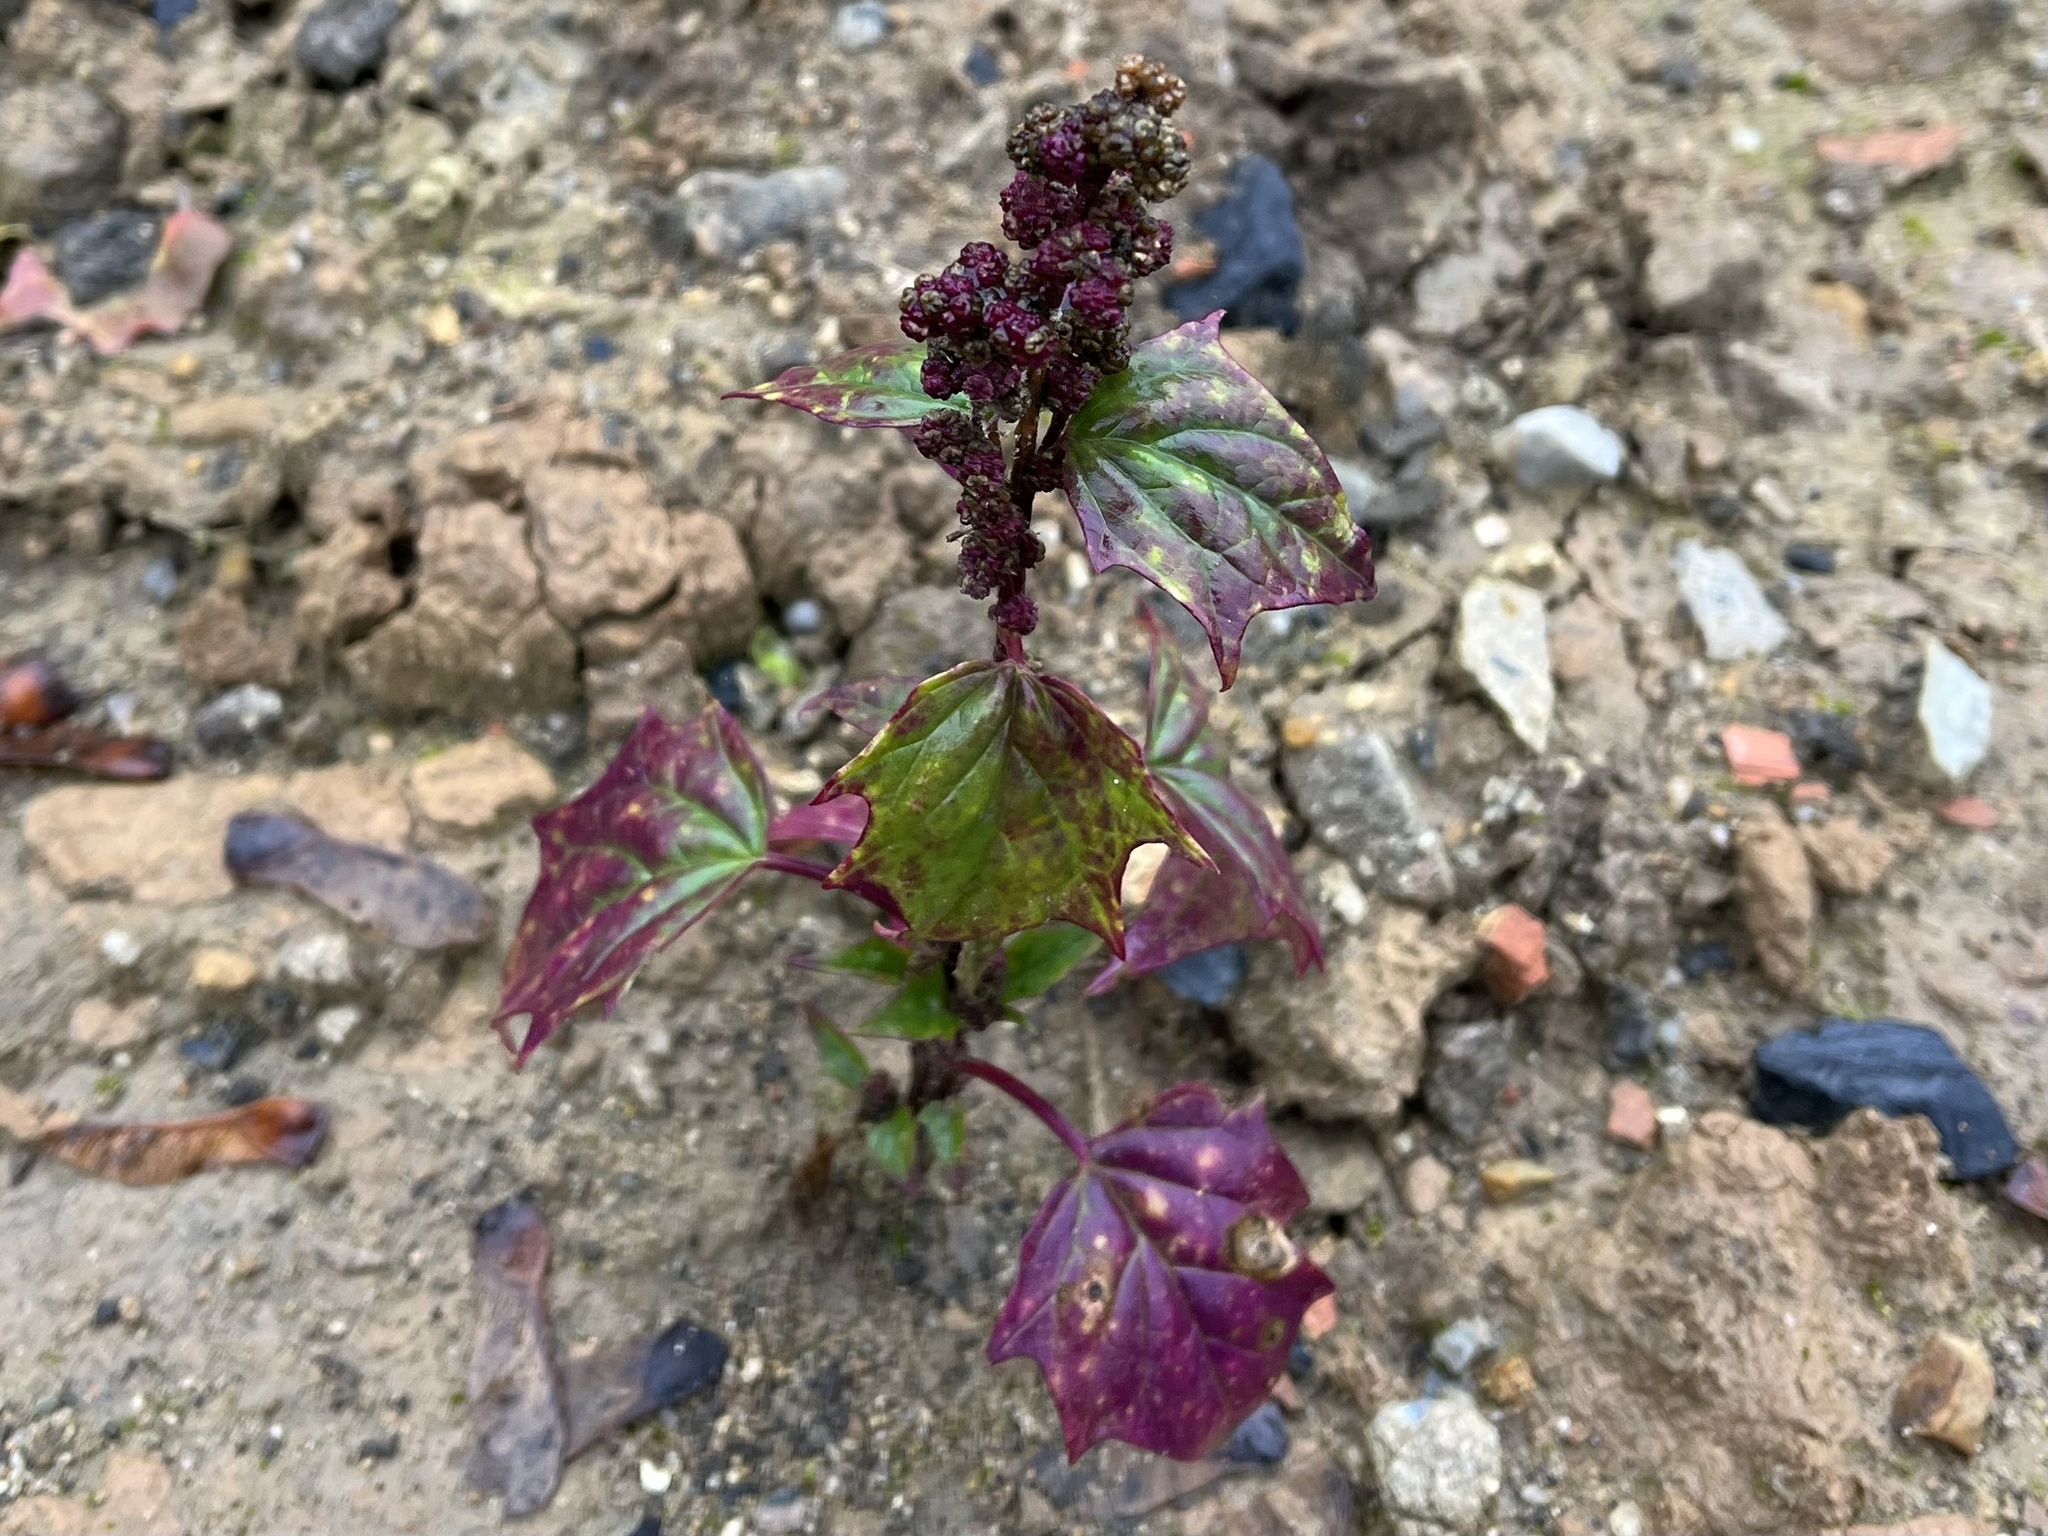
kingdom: Plantae
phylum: Tracheophyta
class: Magnoliopsida
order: Caryophyllales
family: Amaranthaceae
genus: Chenopodiastrum
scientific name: Chenopodiastrum hybridum
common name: Mapleleaf goosefoot
